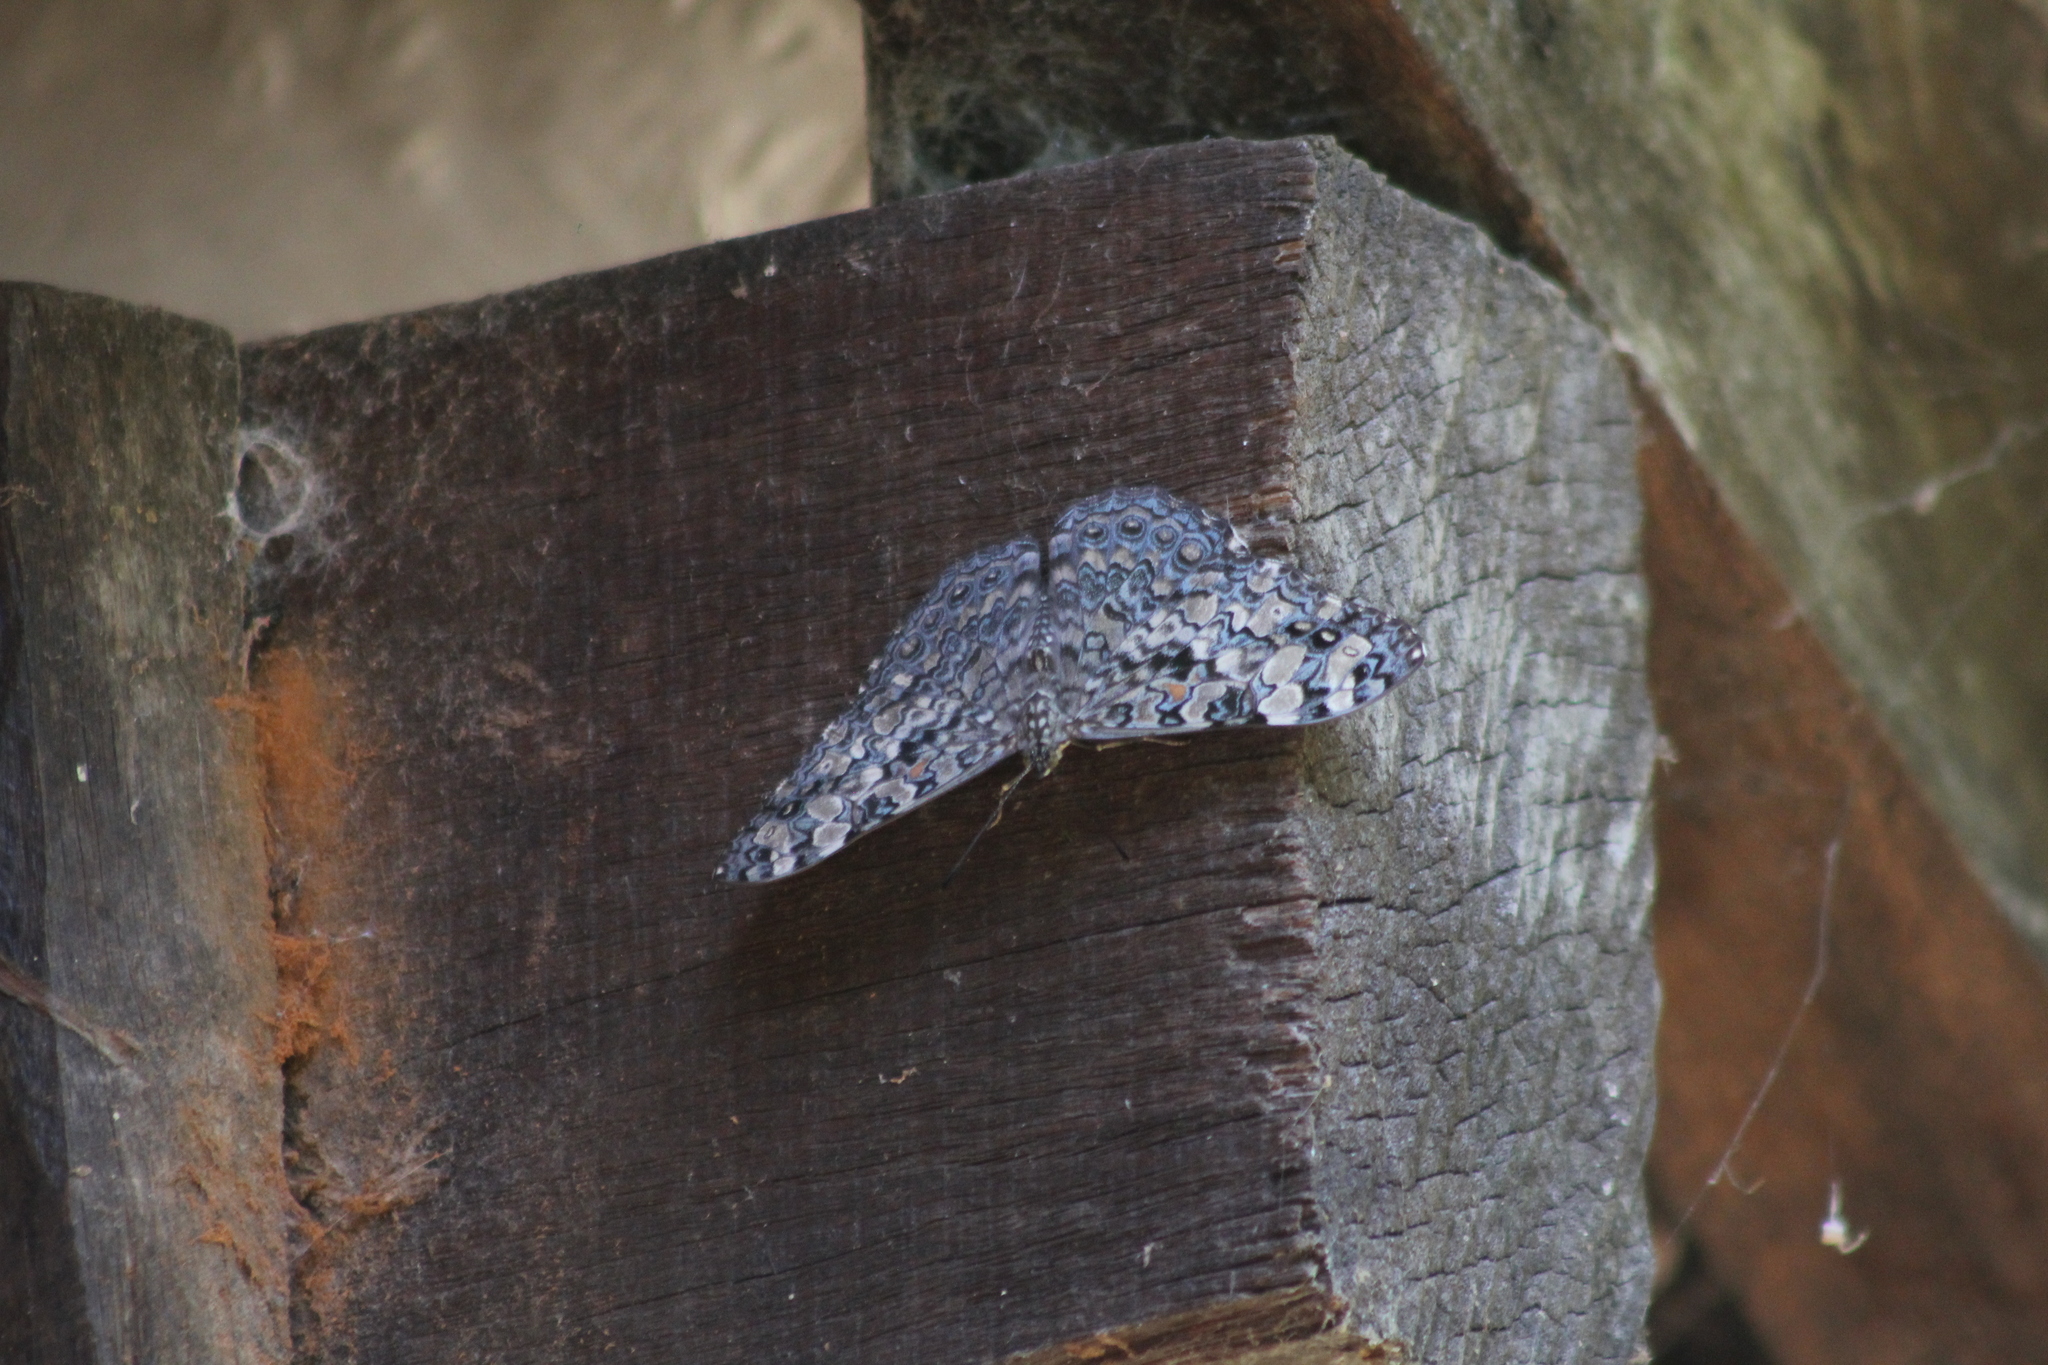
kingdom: Animalia
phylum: Arthropoda
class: Insecta
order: Lepidoptera
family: Nymphalidae
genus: Hamadryas
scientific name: Hamadryas epinome
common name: Epinome cracker
